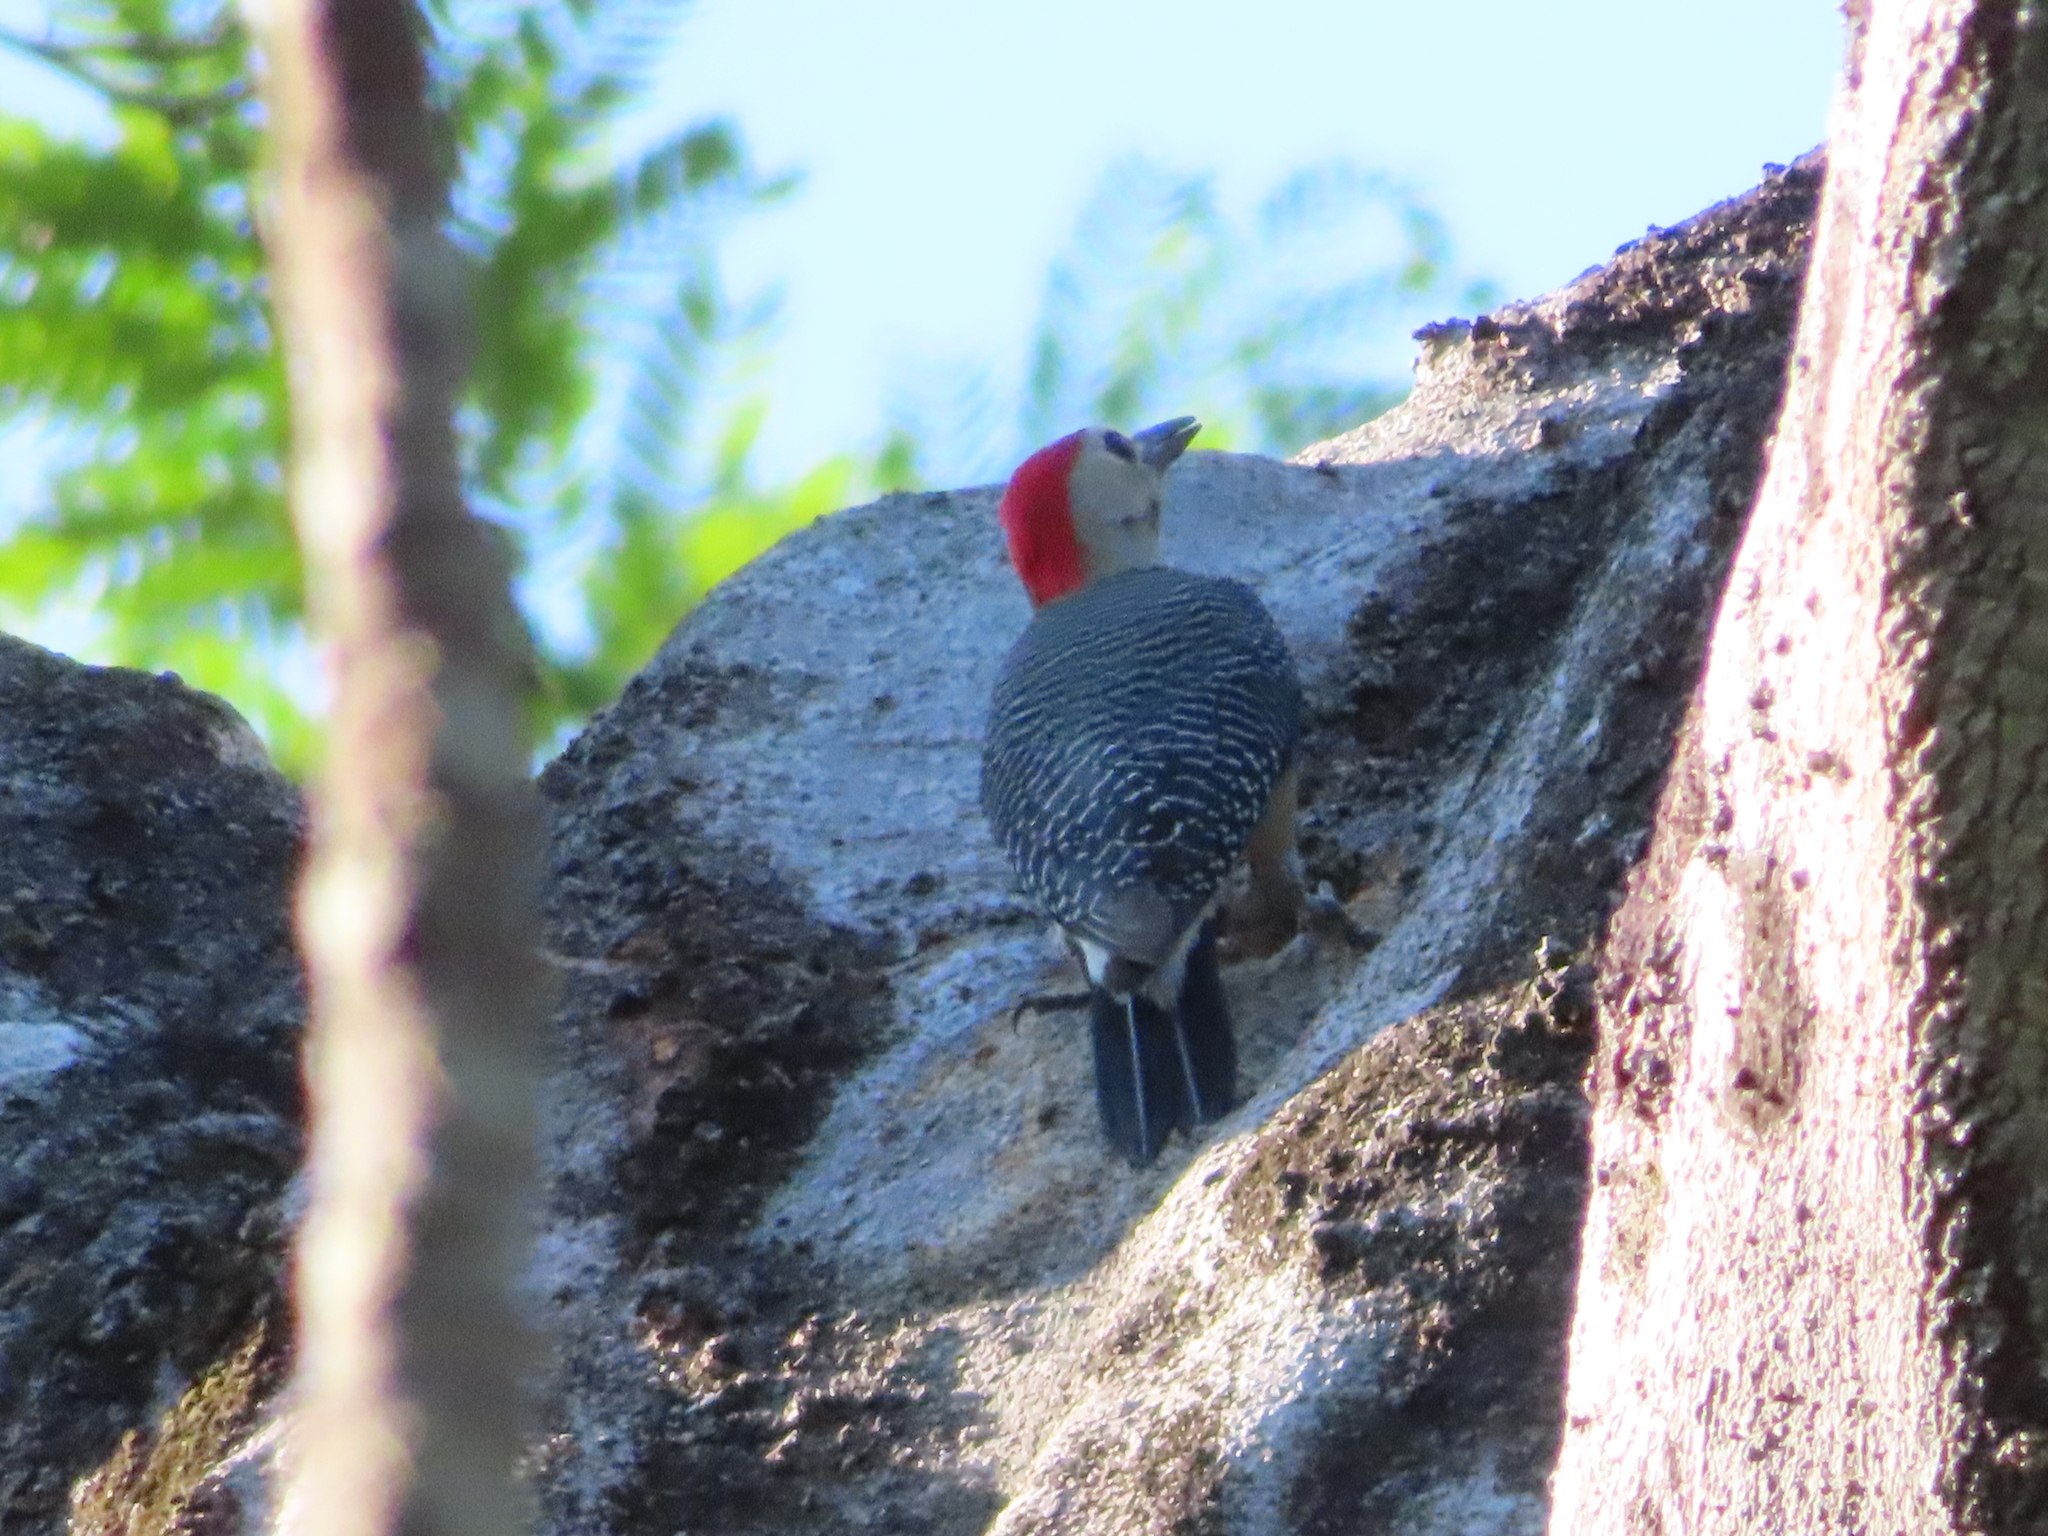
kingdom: Animalia
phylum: Chordata
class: Aves
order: Piciformes
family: Picidae
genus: Melanerpes
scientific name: Melanerpes aurifrons
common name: Golden-fronted woodpecker
